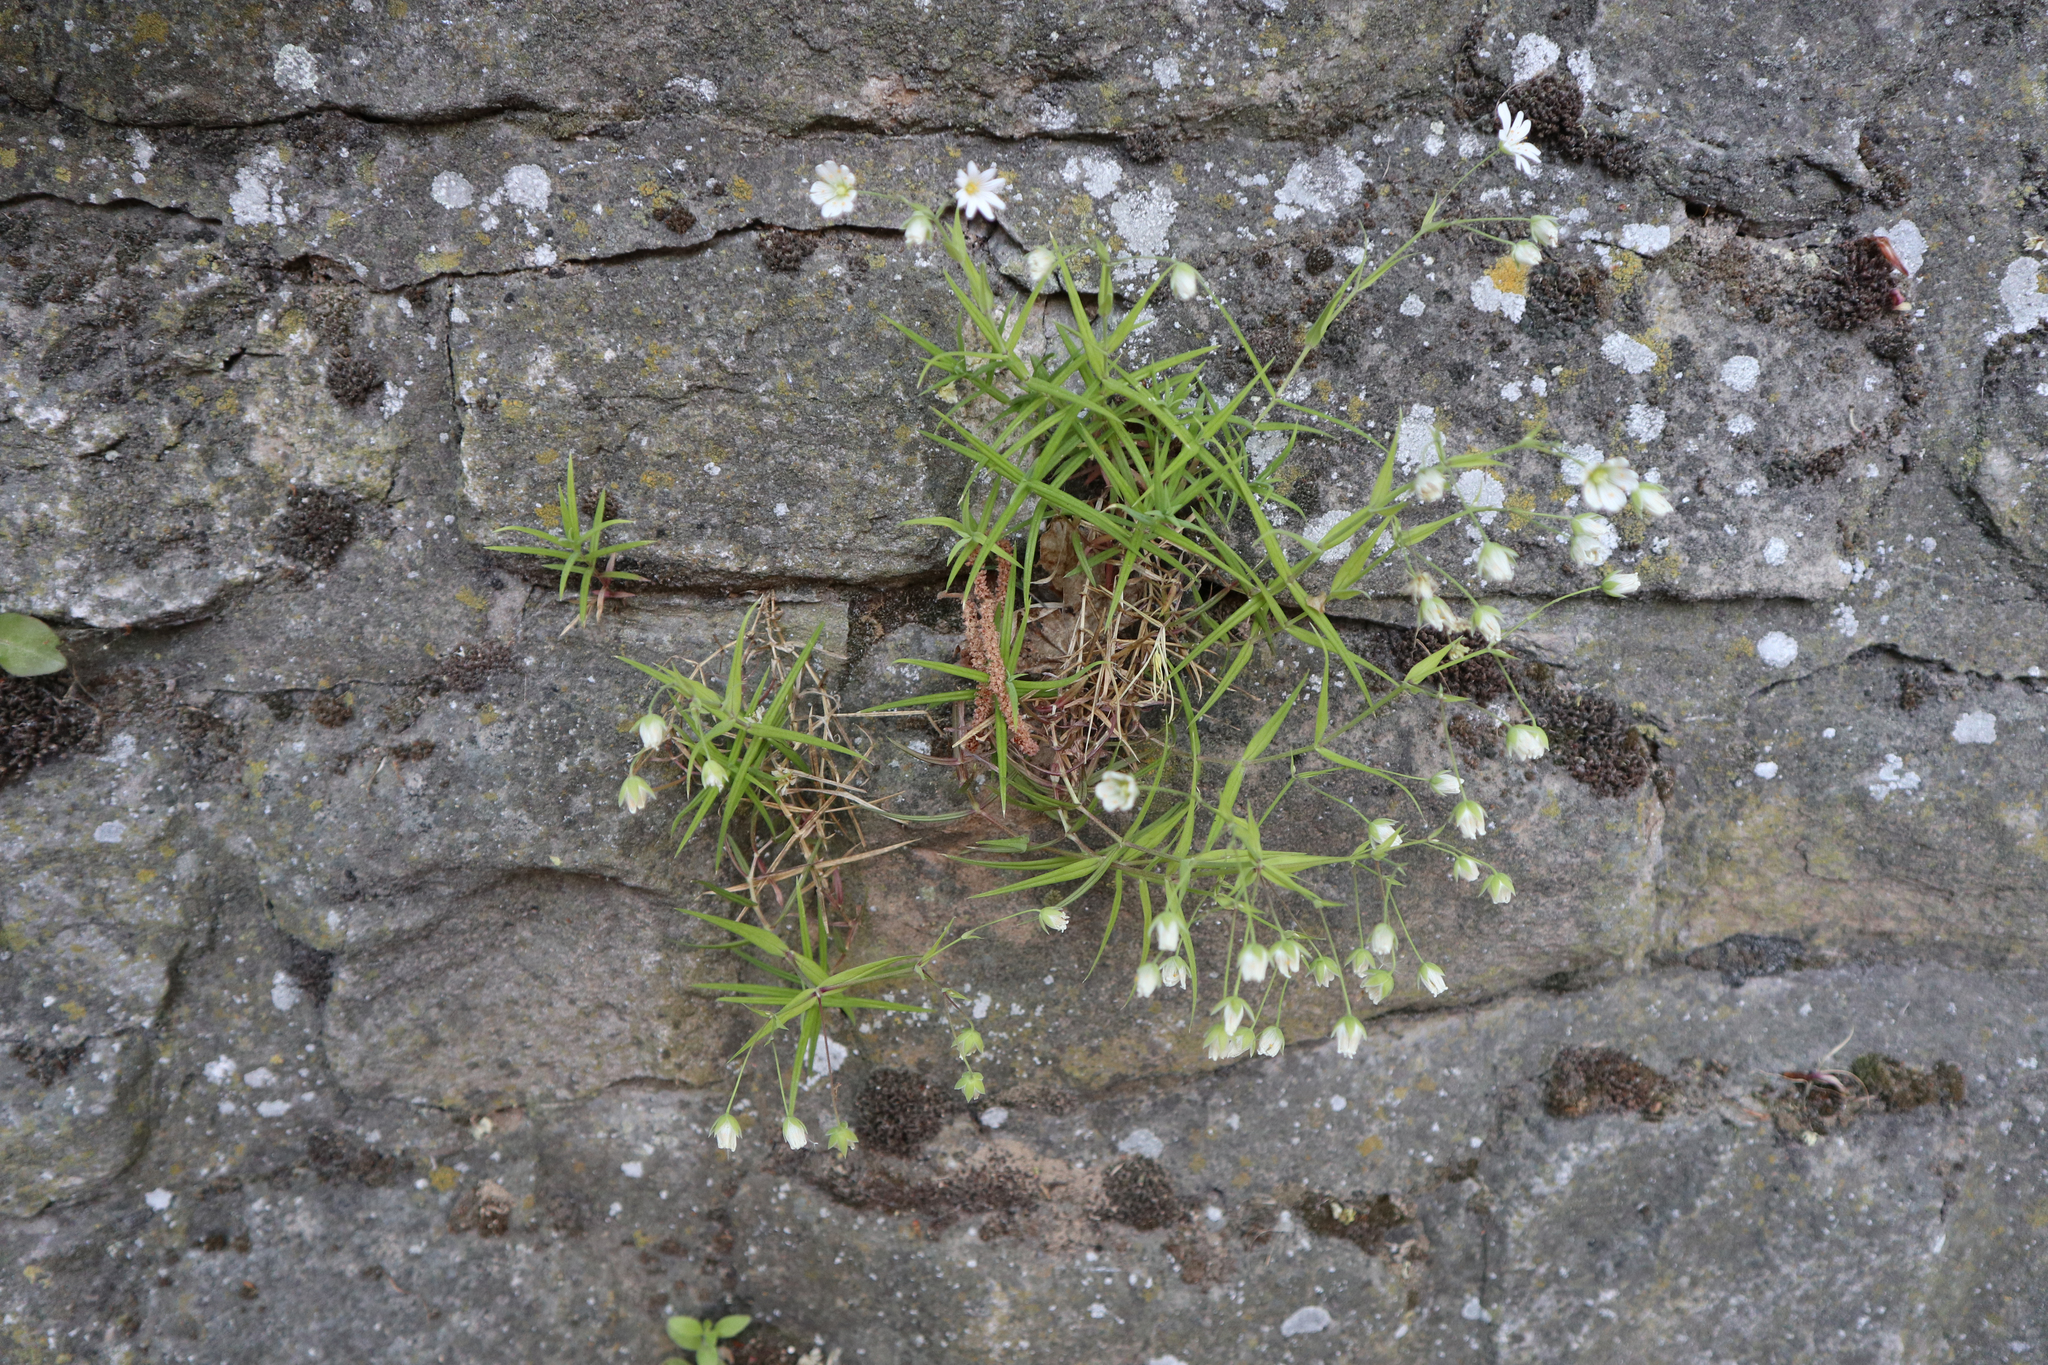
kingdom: Plantae
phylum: Tracheophyta
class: Magnoliopsida
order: Caryophyllales
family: Caryophyllaceae
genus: Rabelera
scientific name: Rabelera holostea
